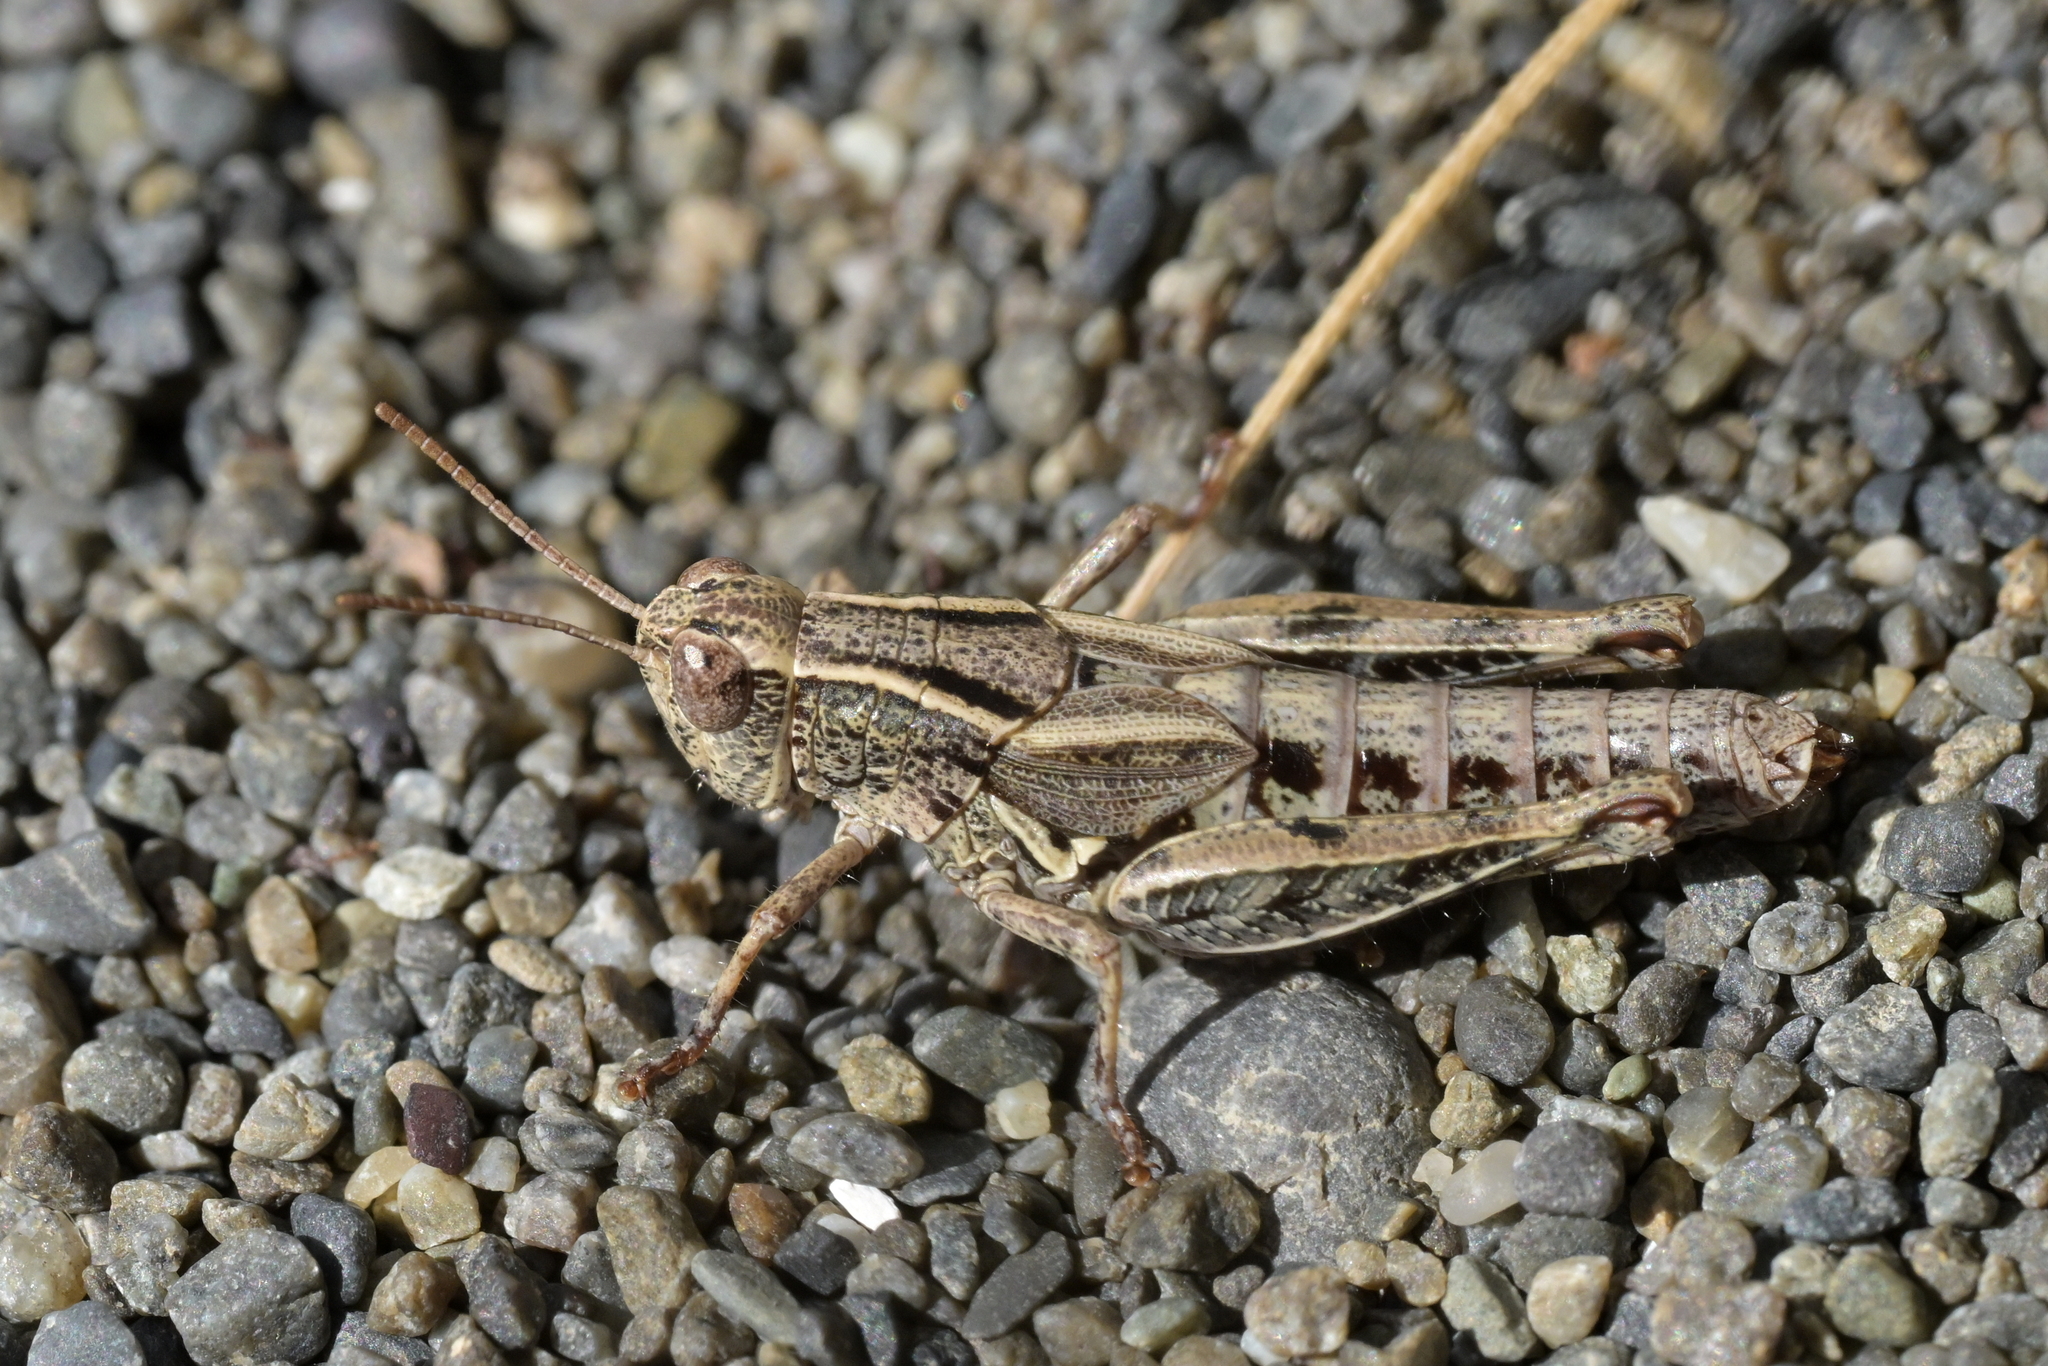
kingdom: Animalia
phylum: Arthropoda
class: Insecta
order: Orthoptera
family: Acrididae
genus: Phaulacridium
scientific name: Phaulacridium marginale
